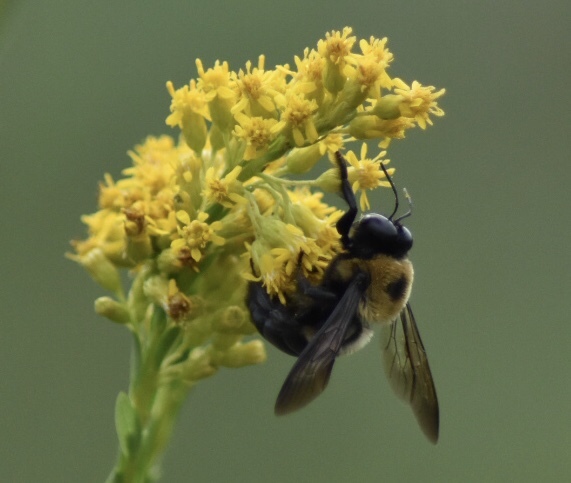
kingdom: Animalia
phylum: Arthropoda
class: Insecta
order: Hymenoptera
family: Apidae
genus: Xylocopa
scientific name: Xylocopa virginica
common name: Carpenter bee
